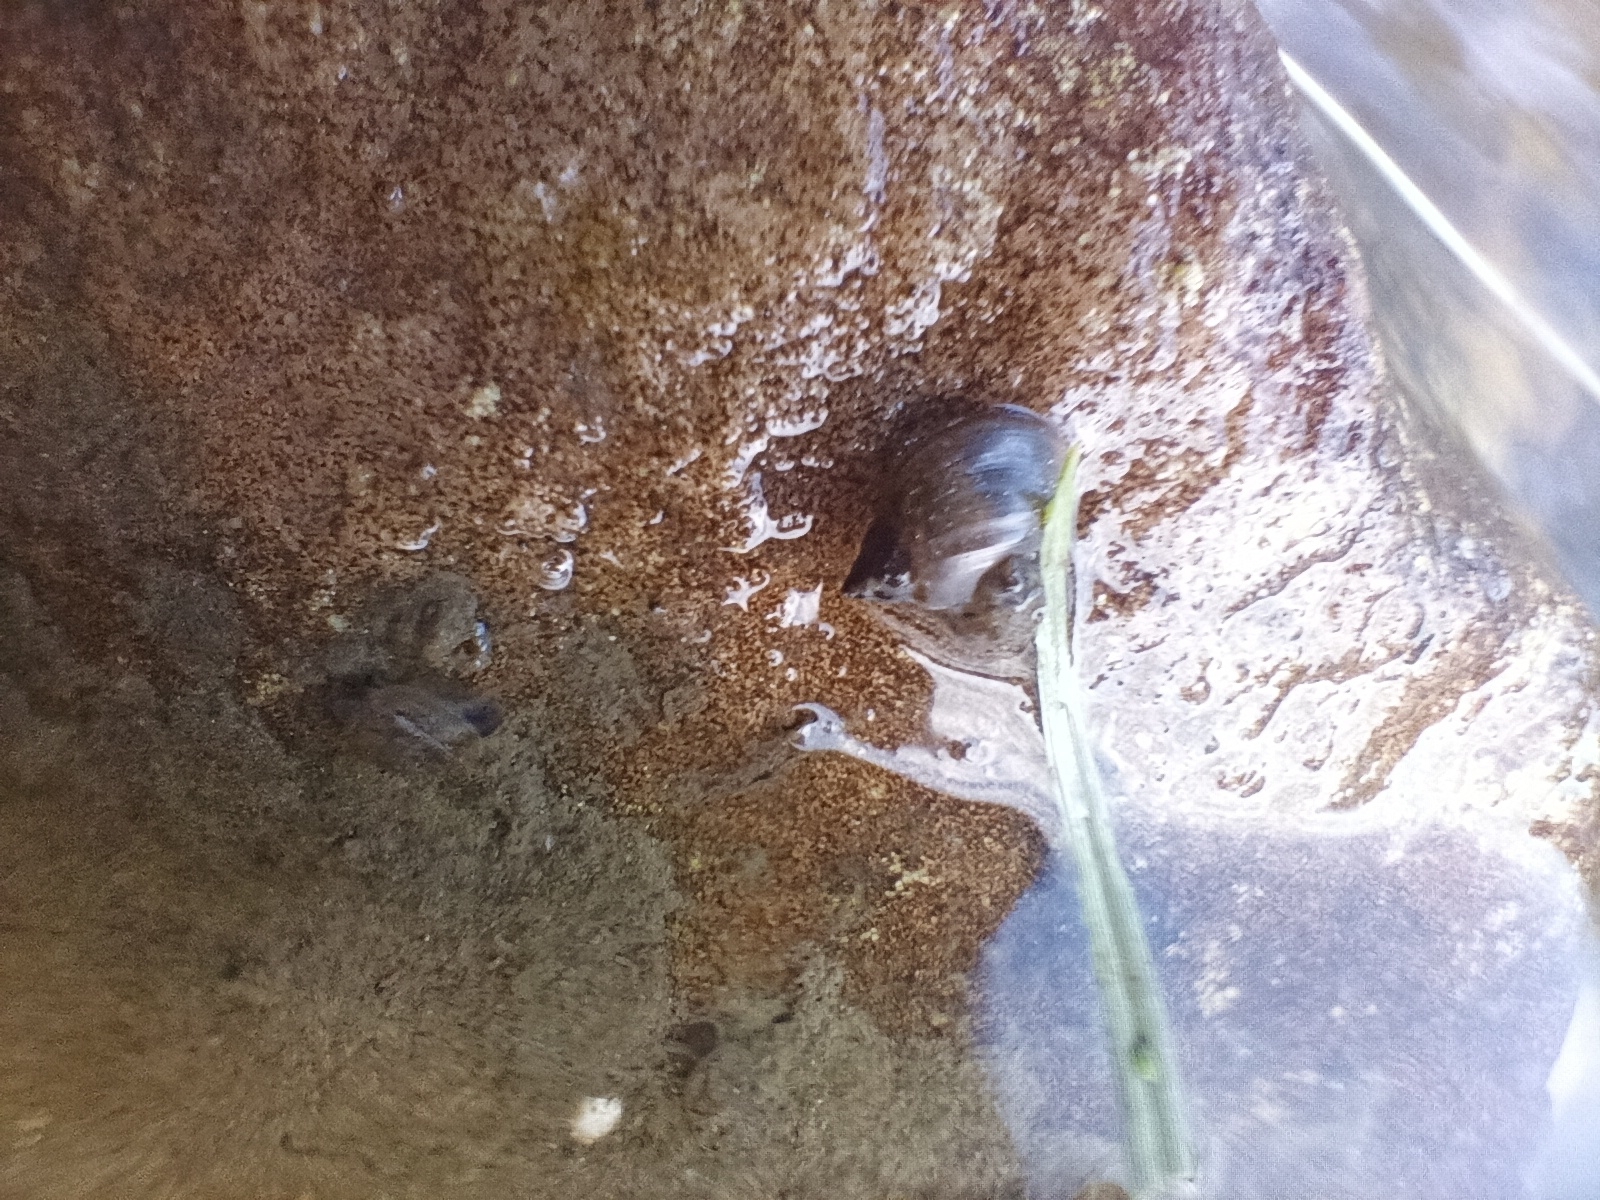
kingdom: Animalia
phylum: Mollusca
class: Gastropoda
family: Physidae
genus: Physella
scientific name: Physella acuta
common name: European physa
